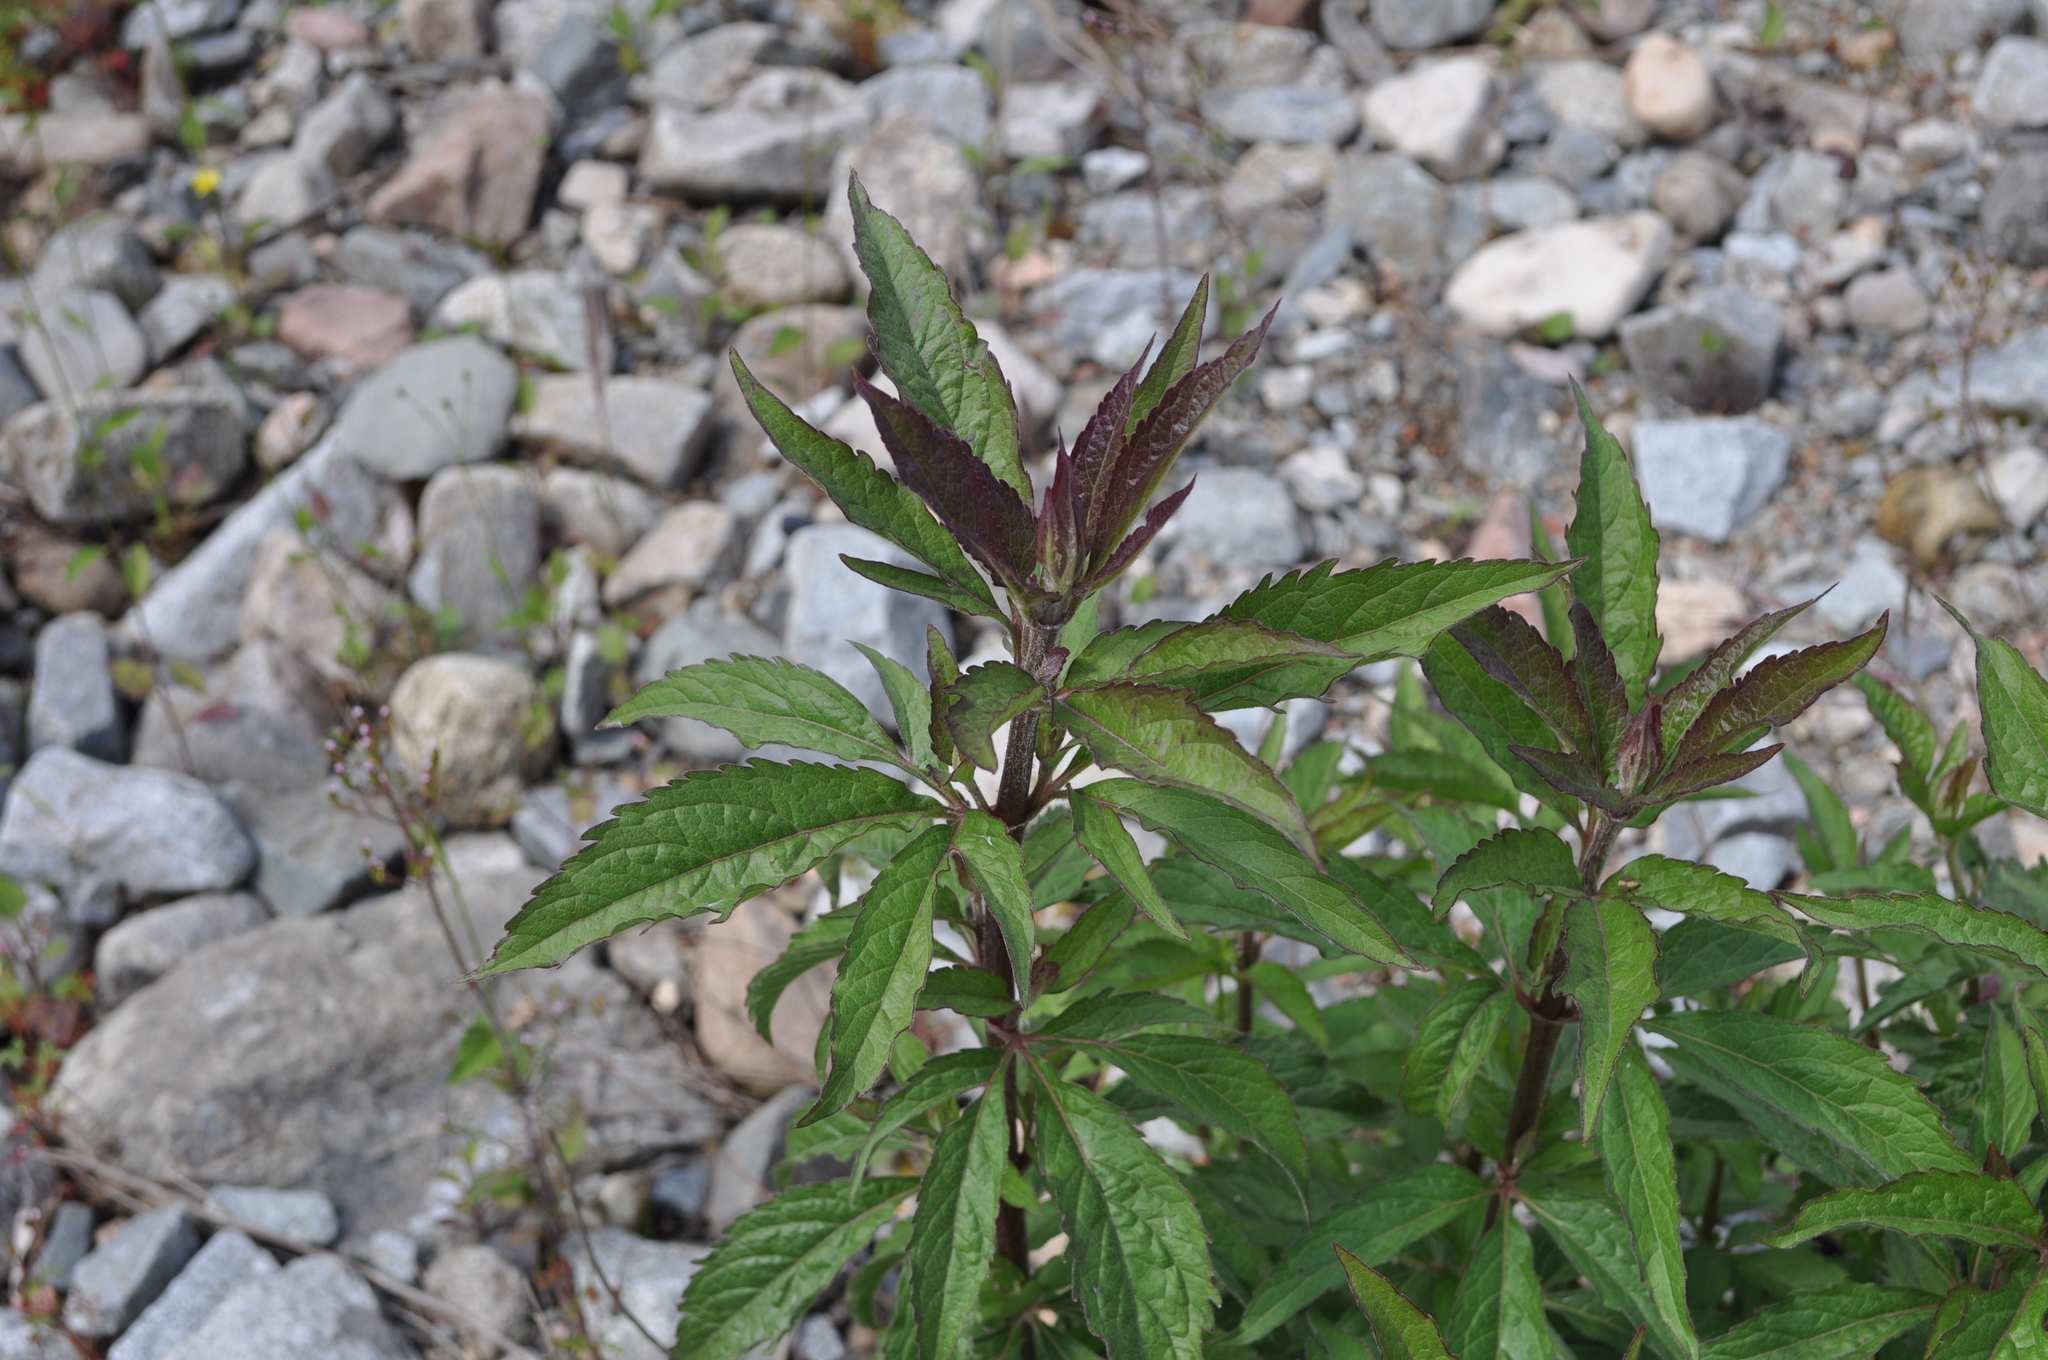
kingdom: Plantae
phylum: Tracheophyta
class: Magnoliopsida
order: Asterales
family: Asteraceae
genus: Eupatorium
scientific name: Eupatorium cannabinum
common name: Hemp-agrimony
